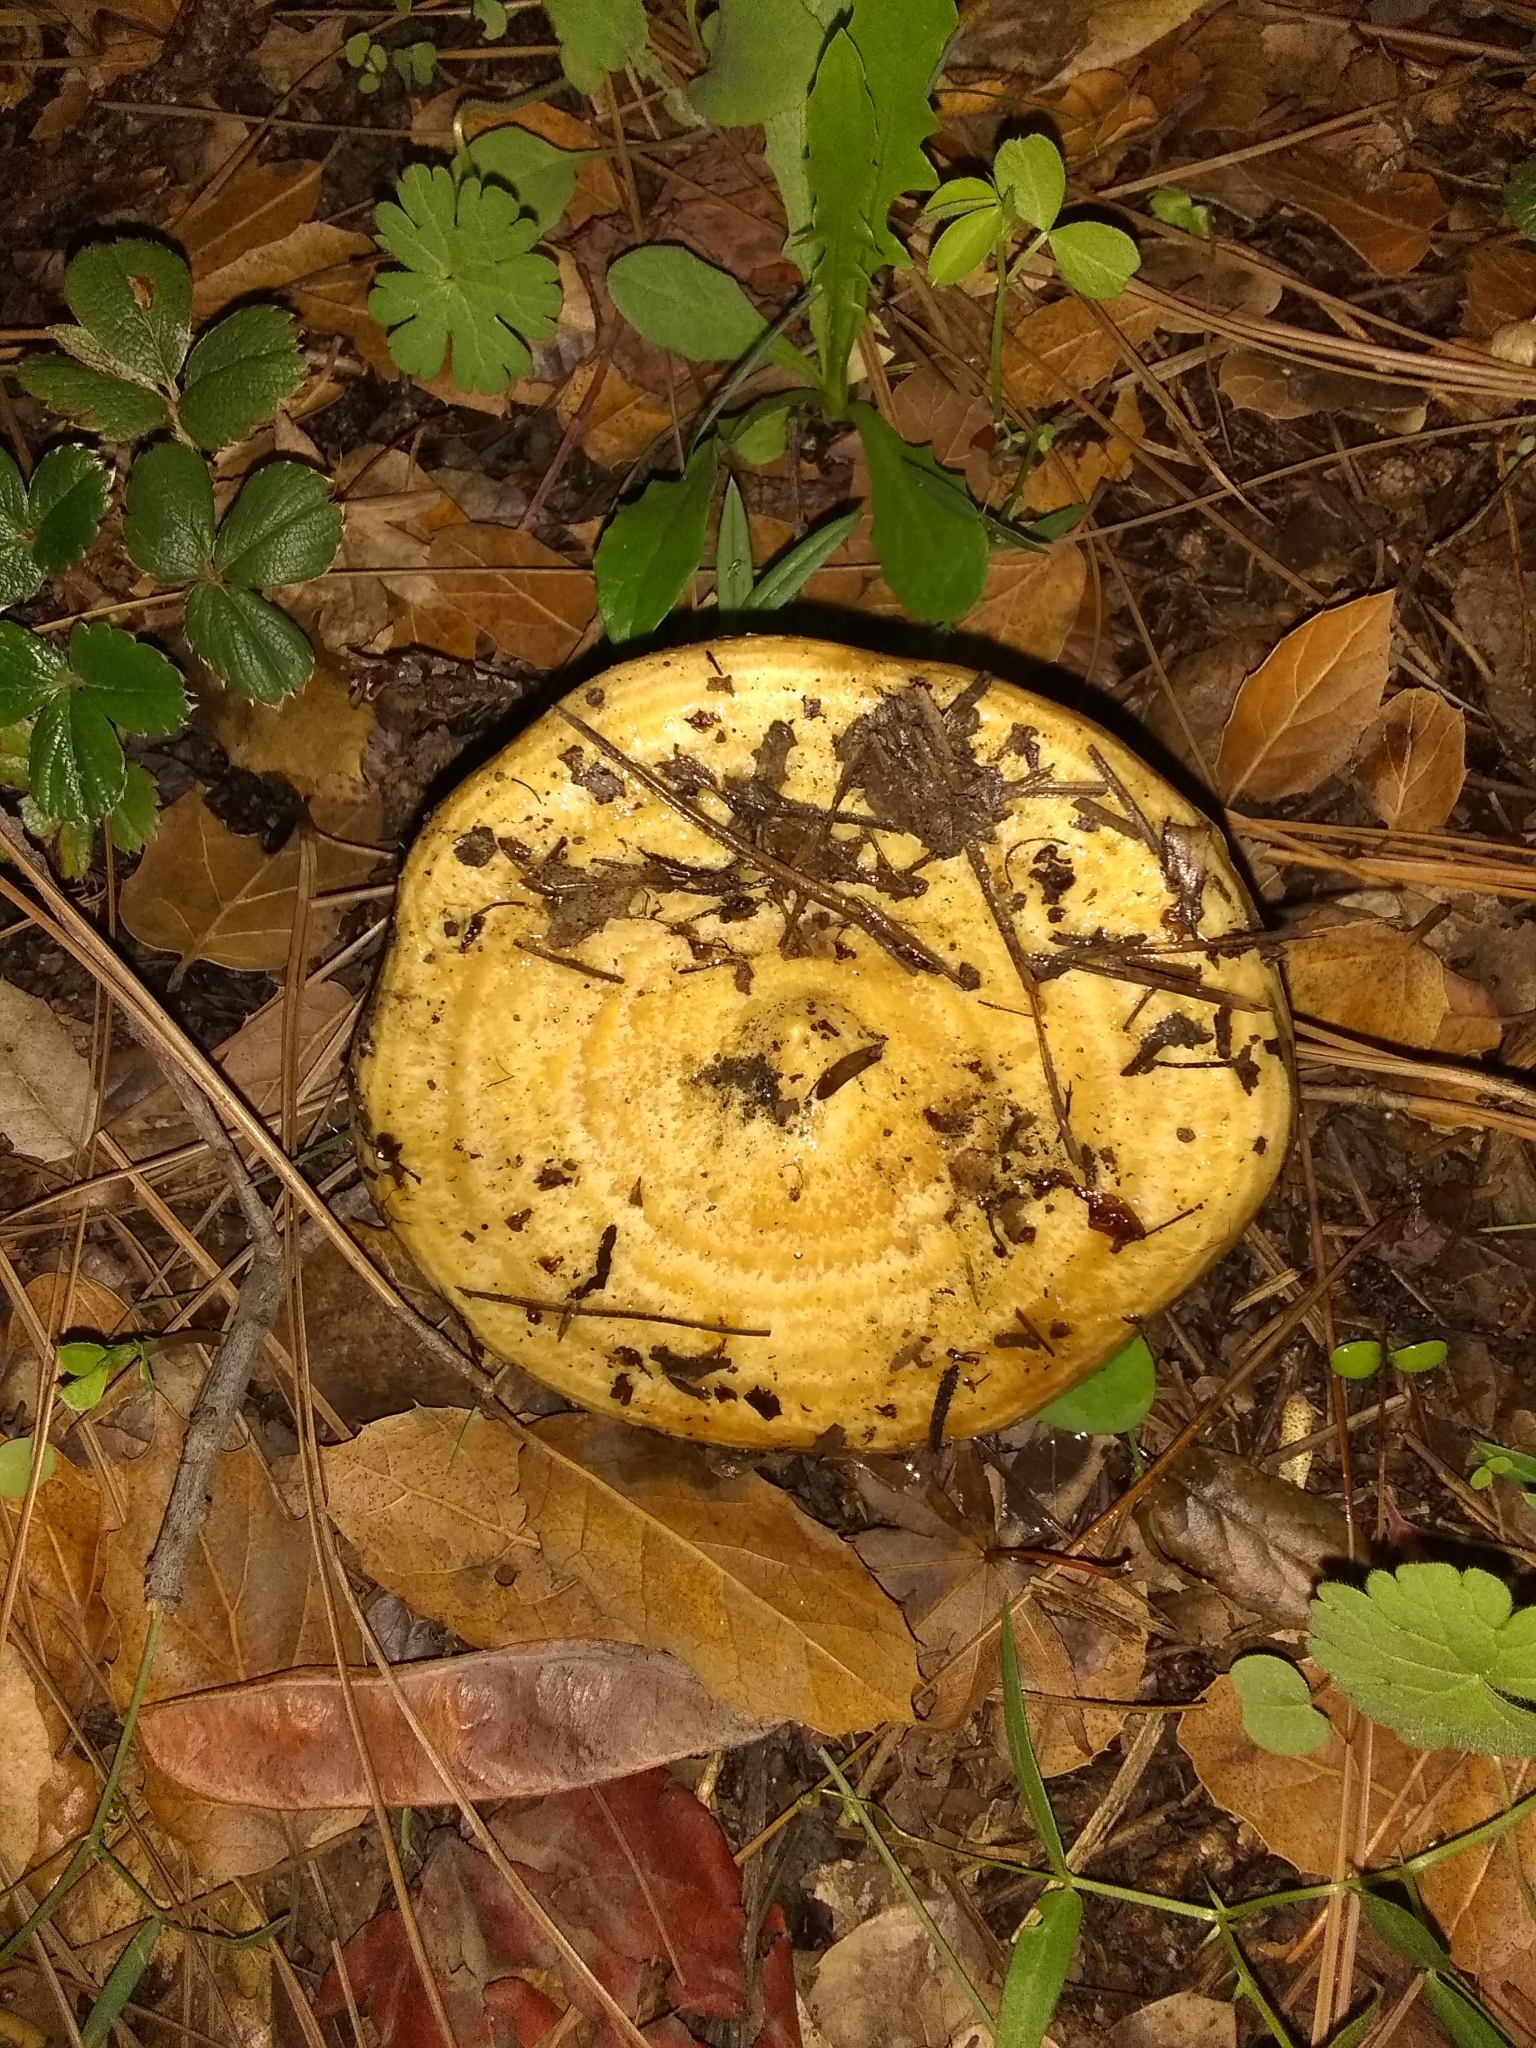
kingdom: Fungi
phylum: Basidiomycota
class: Agaricomycetes
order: Russulales
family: Russulaceae
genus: Lactarius
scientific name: Lactarius alnicola
